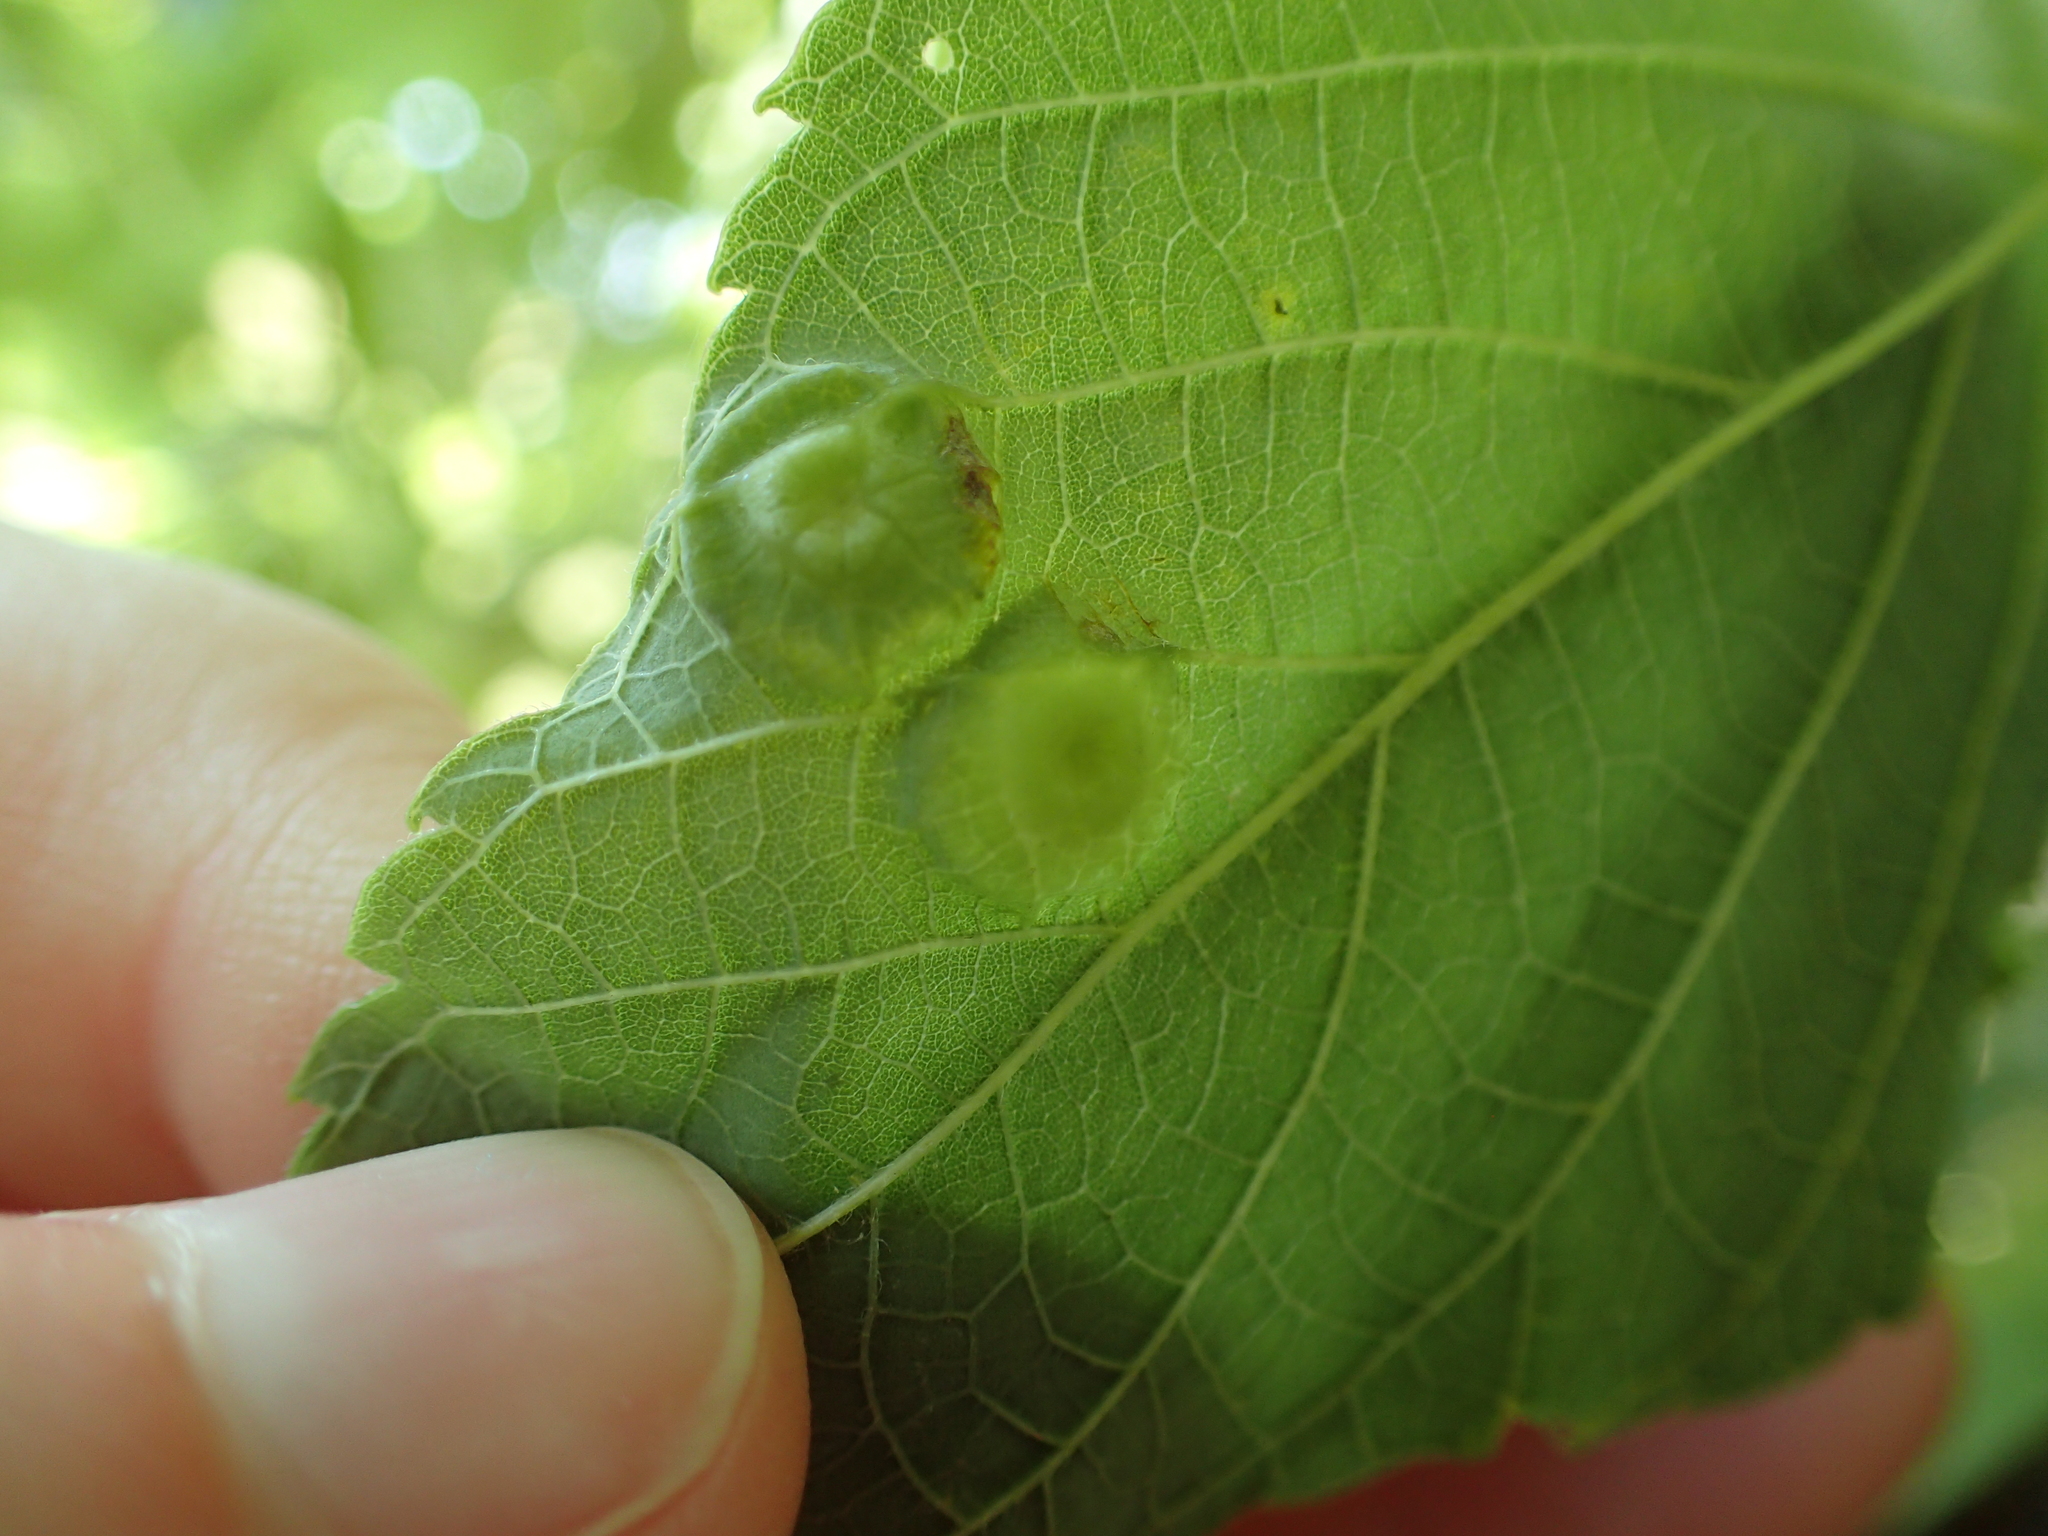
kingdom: Animalia
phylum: Arthropoda
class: Insecta
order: Hemiptera
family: Aphalaridae
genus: Pachypsylla
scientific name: Pachypsylla celtidisumbilicus
